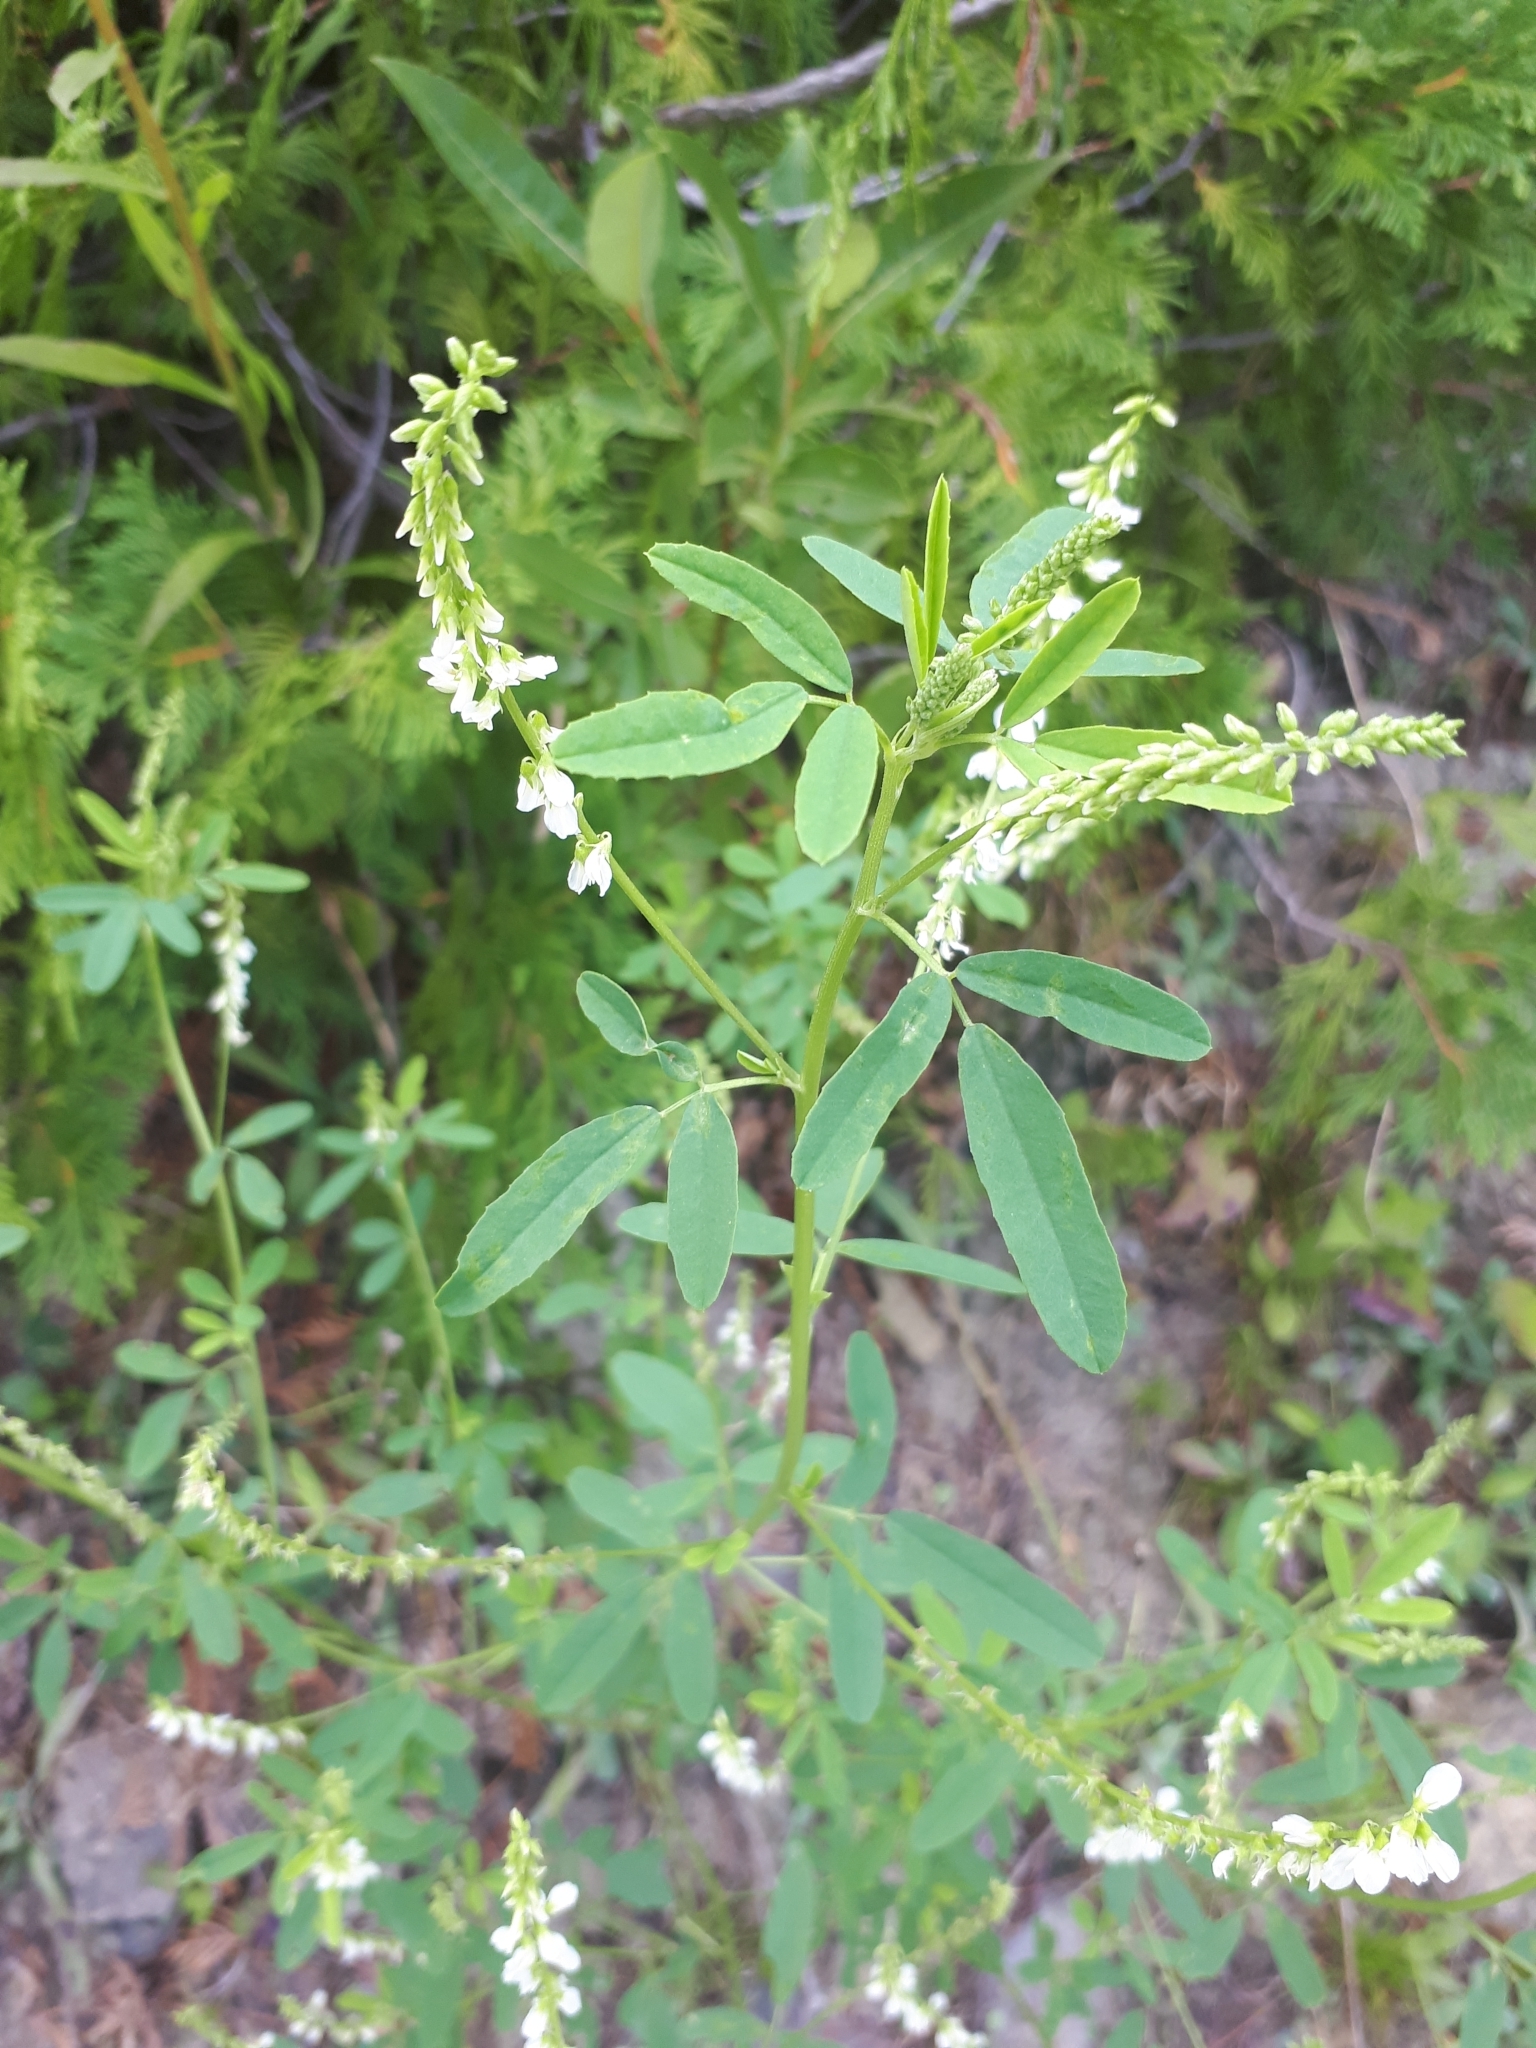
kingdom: Plantae
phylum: Tracheophyta
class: Magnoliopsida
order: Fabales
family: Fabaceae
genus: Melilotus
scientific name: Melilotus albus
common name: White melilot
